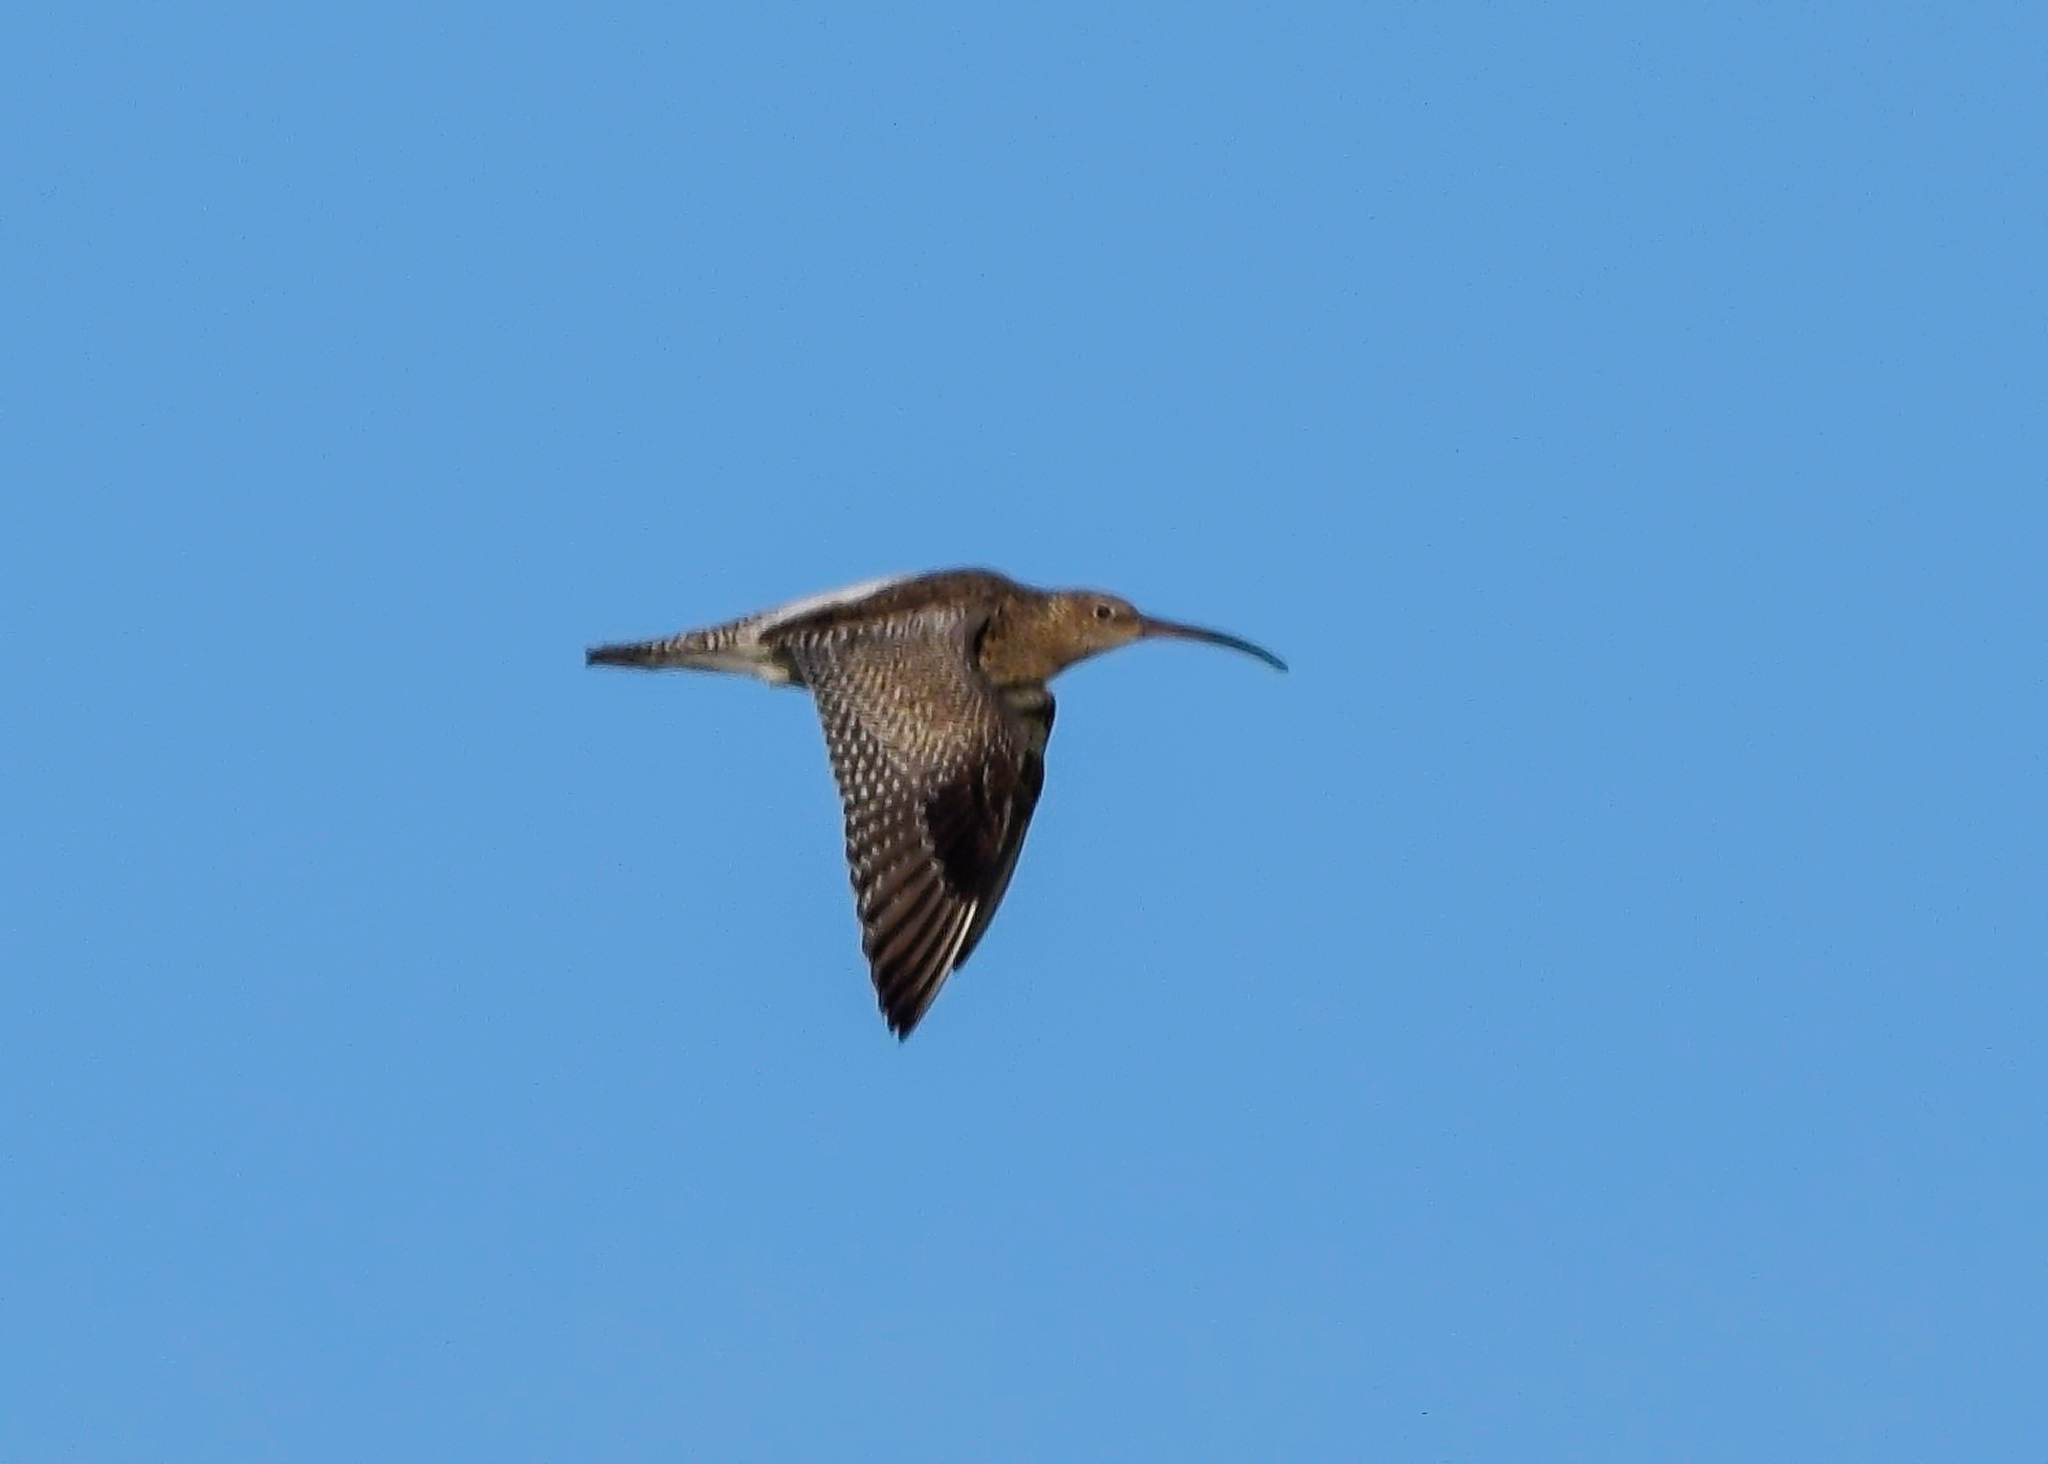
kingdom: Animalia
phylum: Chordata
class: Aves
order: Charadriiformes
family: Scolopacidae
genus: Numenius
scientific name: Numenius arquata
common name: Eurasian curlew
